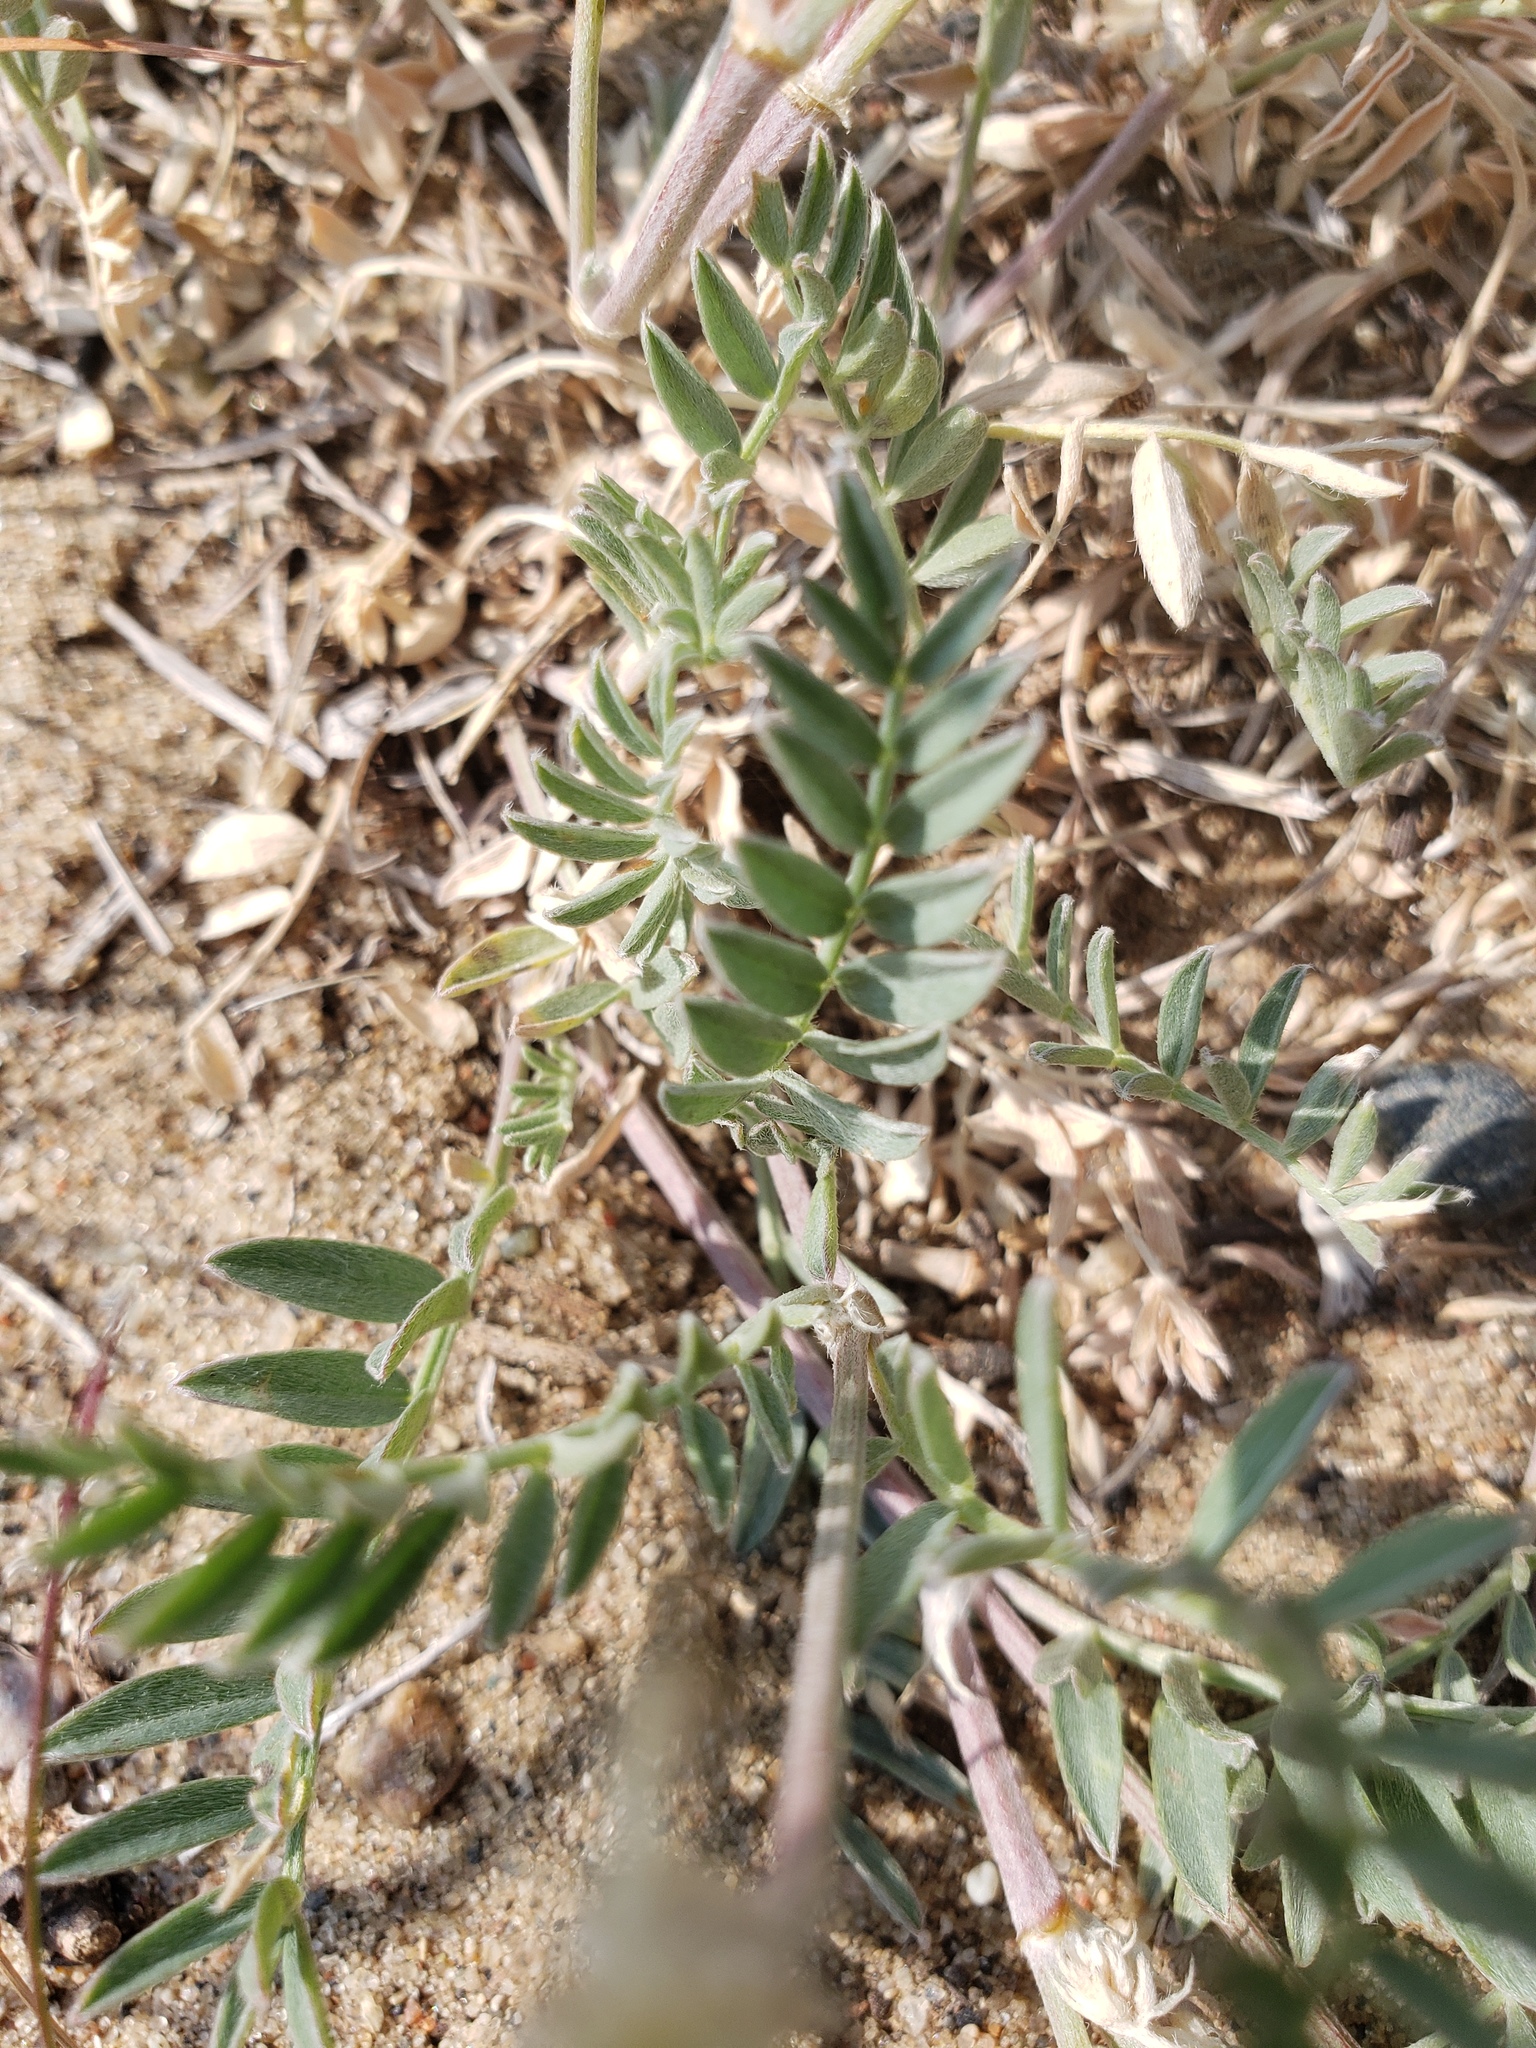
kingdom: Plantae
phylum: Tracheophyta
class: Magnoliopsida
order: Fabales
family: Fabaceae
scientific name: Fabaceae
